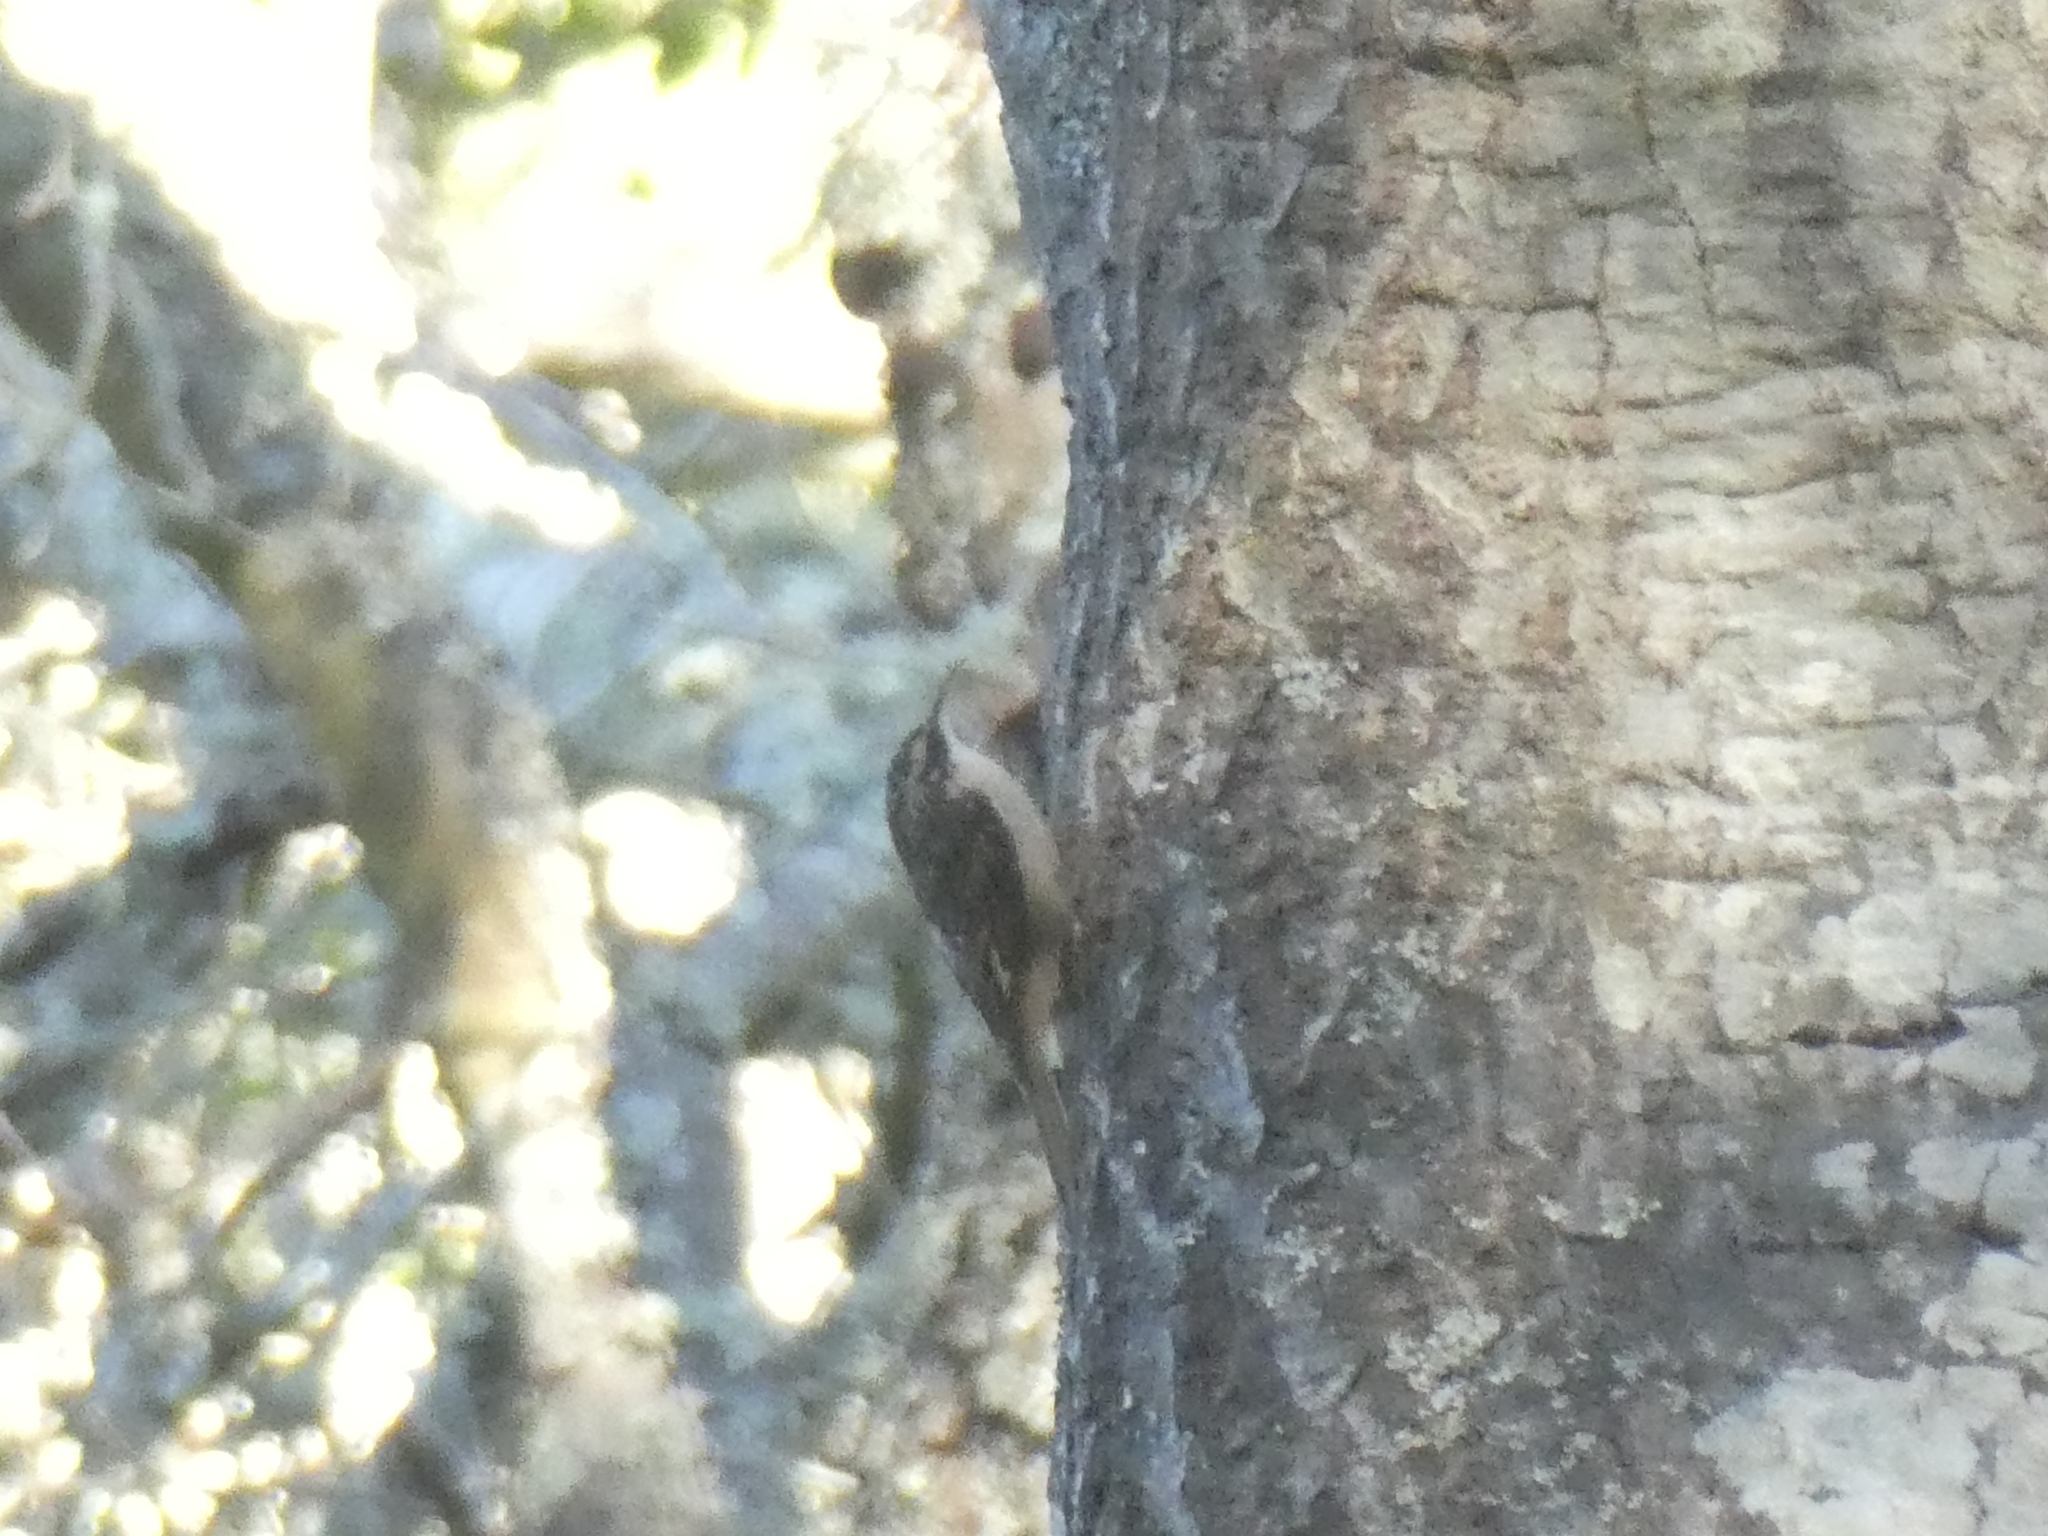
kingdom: Animalia
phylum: Chordata
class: Aves
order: Passeriformes
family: Certhiidae
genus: Certhia
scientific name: Certhia americana
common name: Brown creeper
